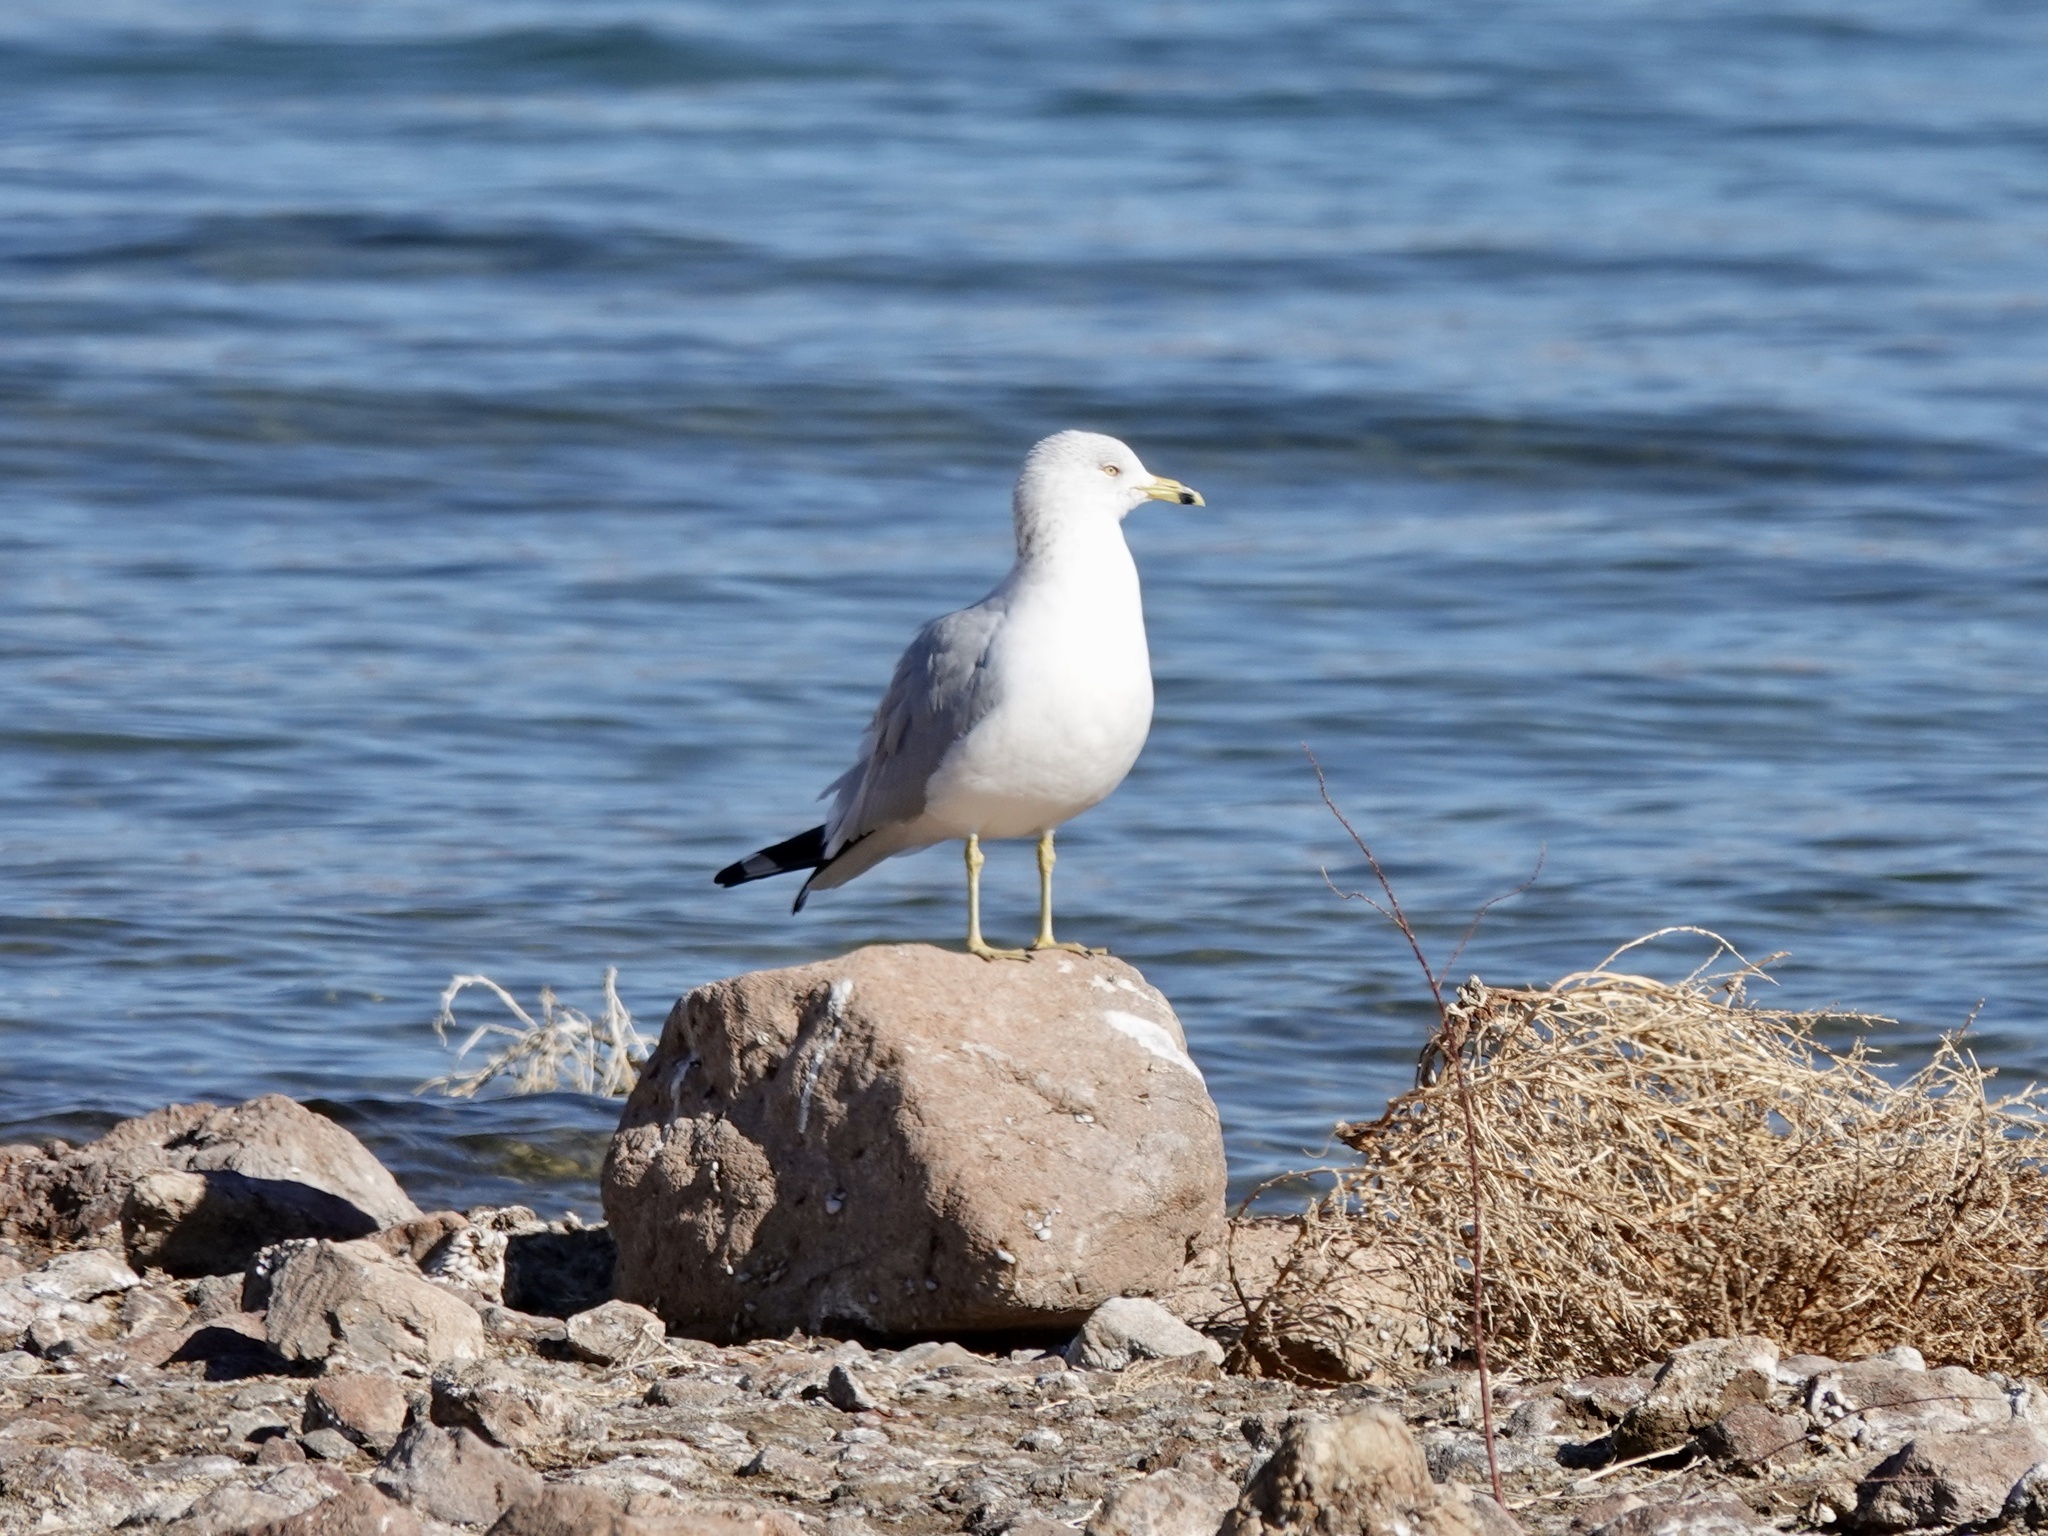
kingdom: Animalia
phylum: Chordata
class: Aves
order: Charadriiformes
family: Laridae
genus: Larus
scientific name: Larus delawarensis
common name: Ring-billed gull
